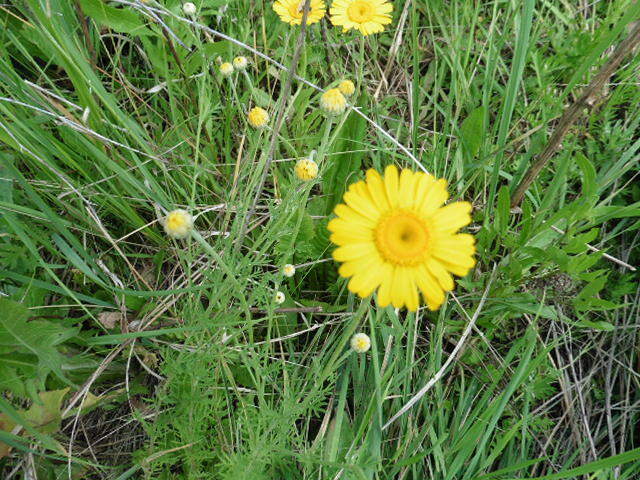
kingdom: Plantae
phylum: Tracheophyta
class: Magnoliopsida
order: Asterales
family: Asteraceae
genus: Cota
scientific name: Cota tinctoria
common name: Golden chamomile
